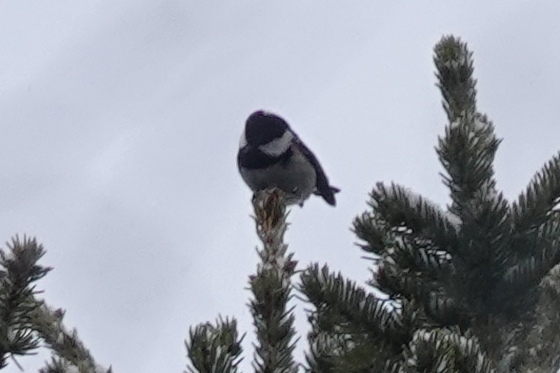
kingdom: Animalia
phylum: Chordata
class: Aves
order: Passeriformes
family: Paridae
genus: Periparus
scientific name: Periparus ater
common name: Coal tit
